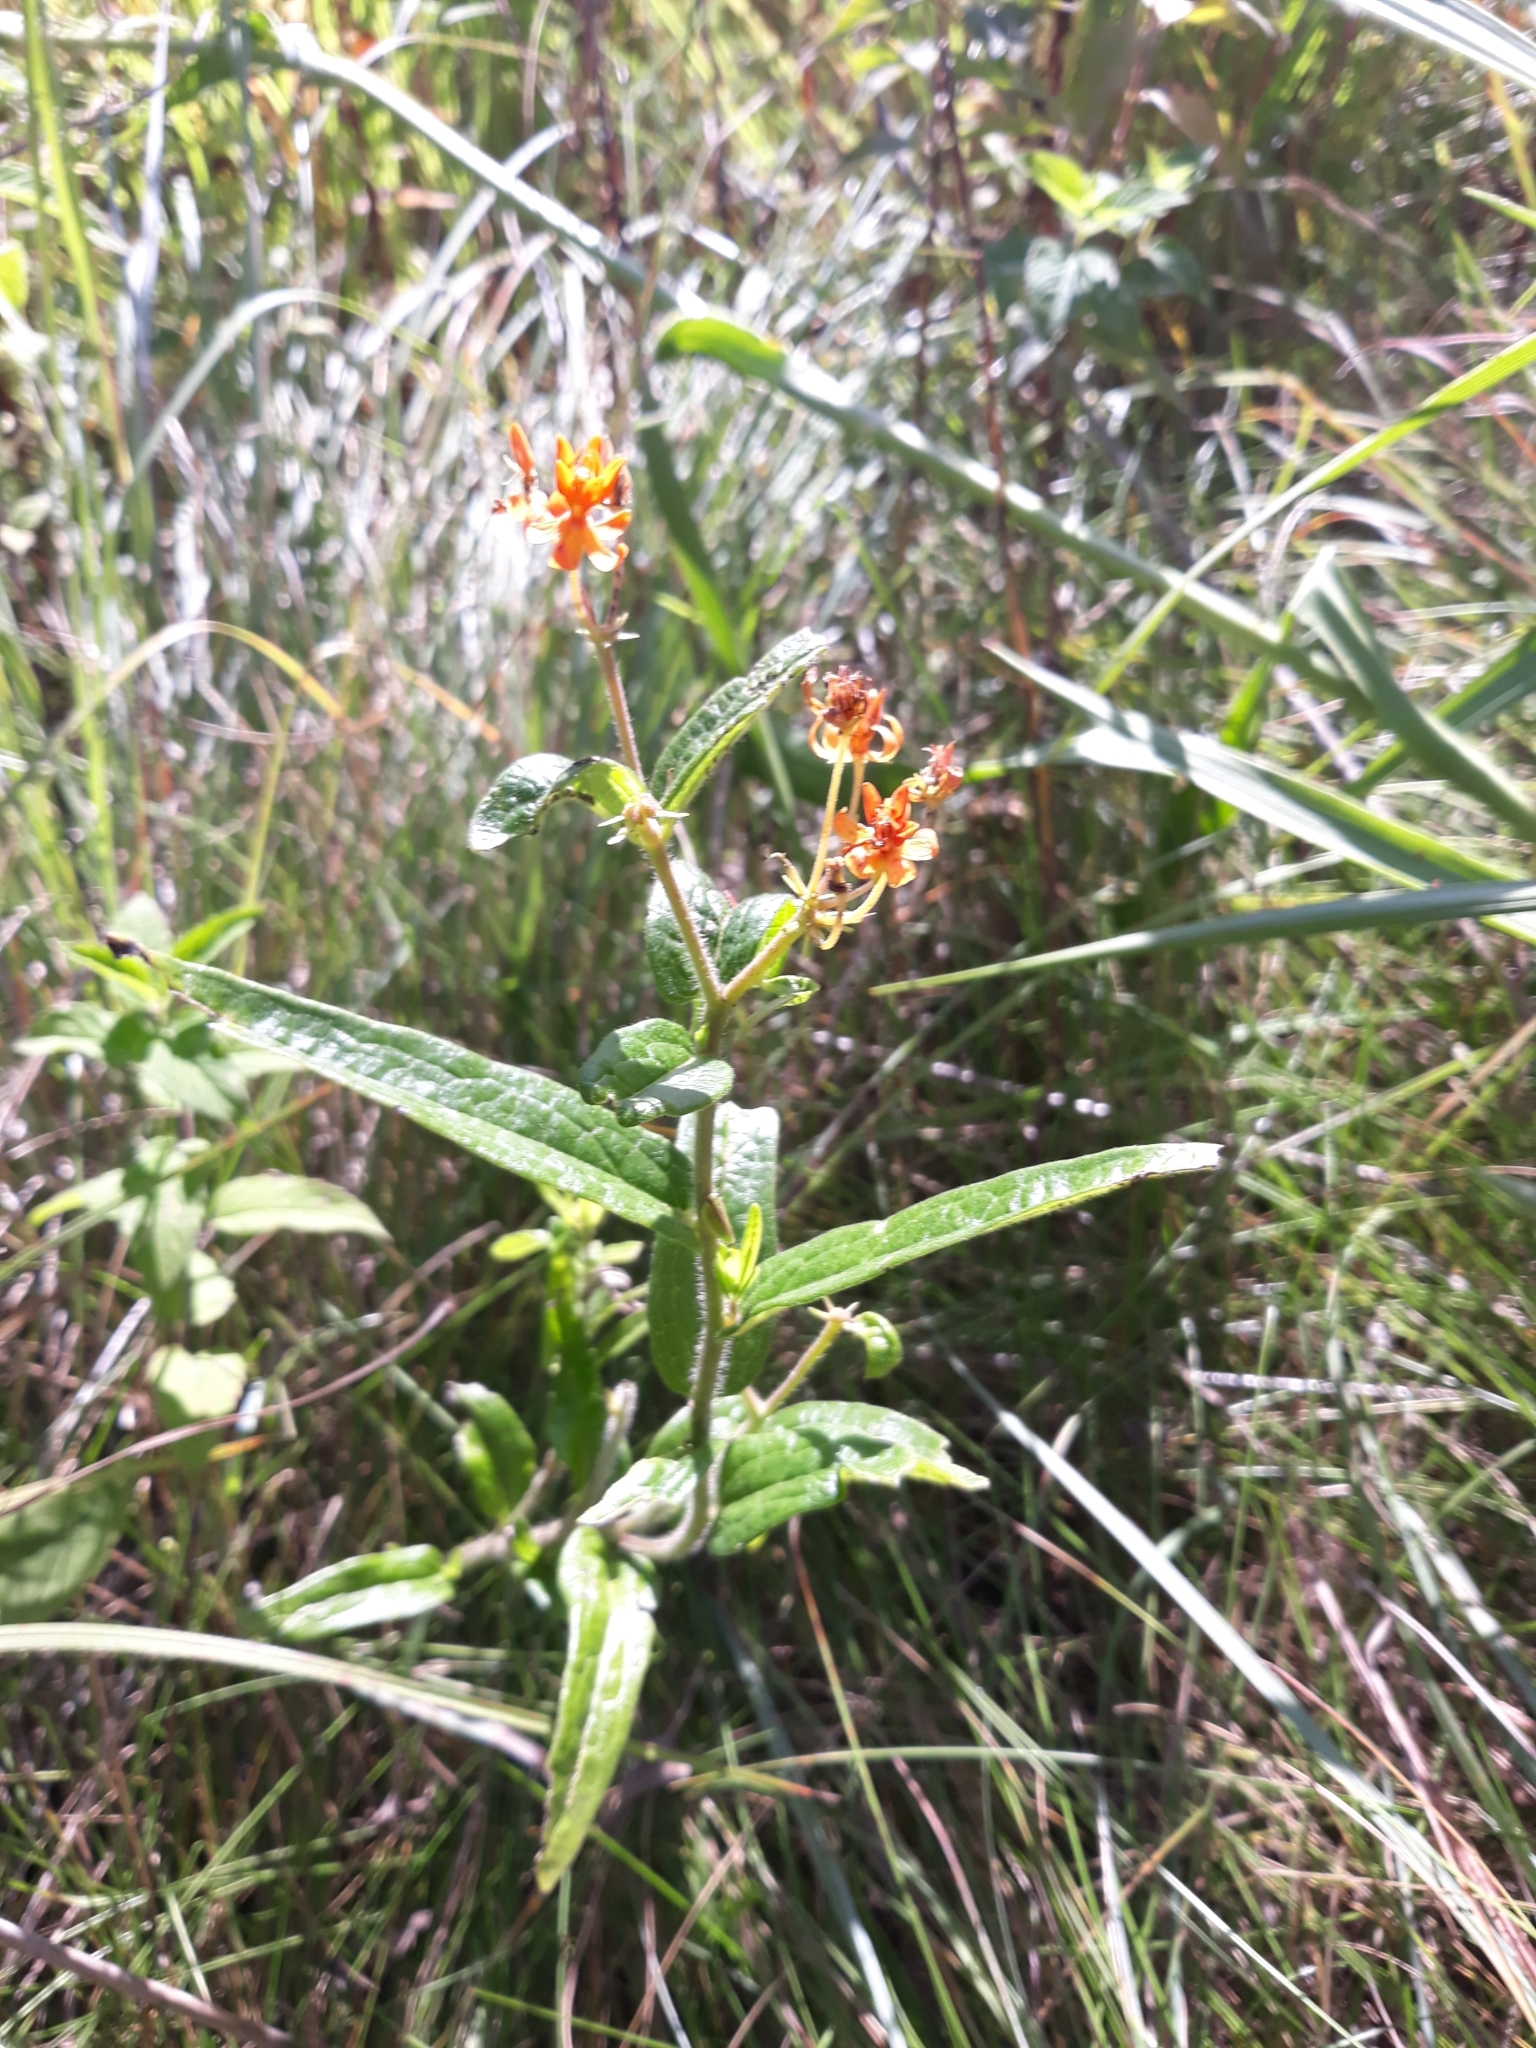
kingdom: Plantae
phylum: Tracheophyta
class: Magnoliopsida
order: Gentianales
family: Apocynaceae
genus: Asclepias
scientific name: Asclepias tuberosa
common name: Butterfly milkweed
